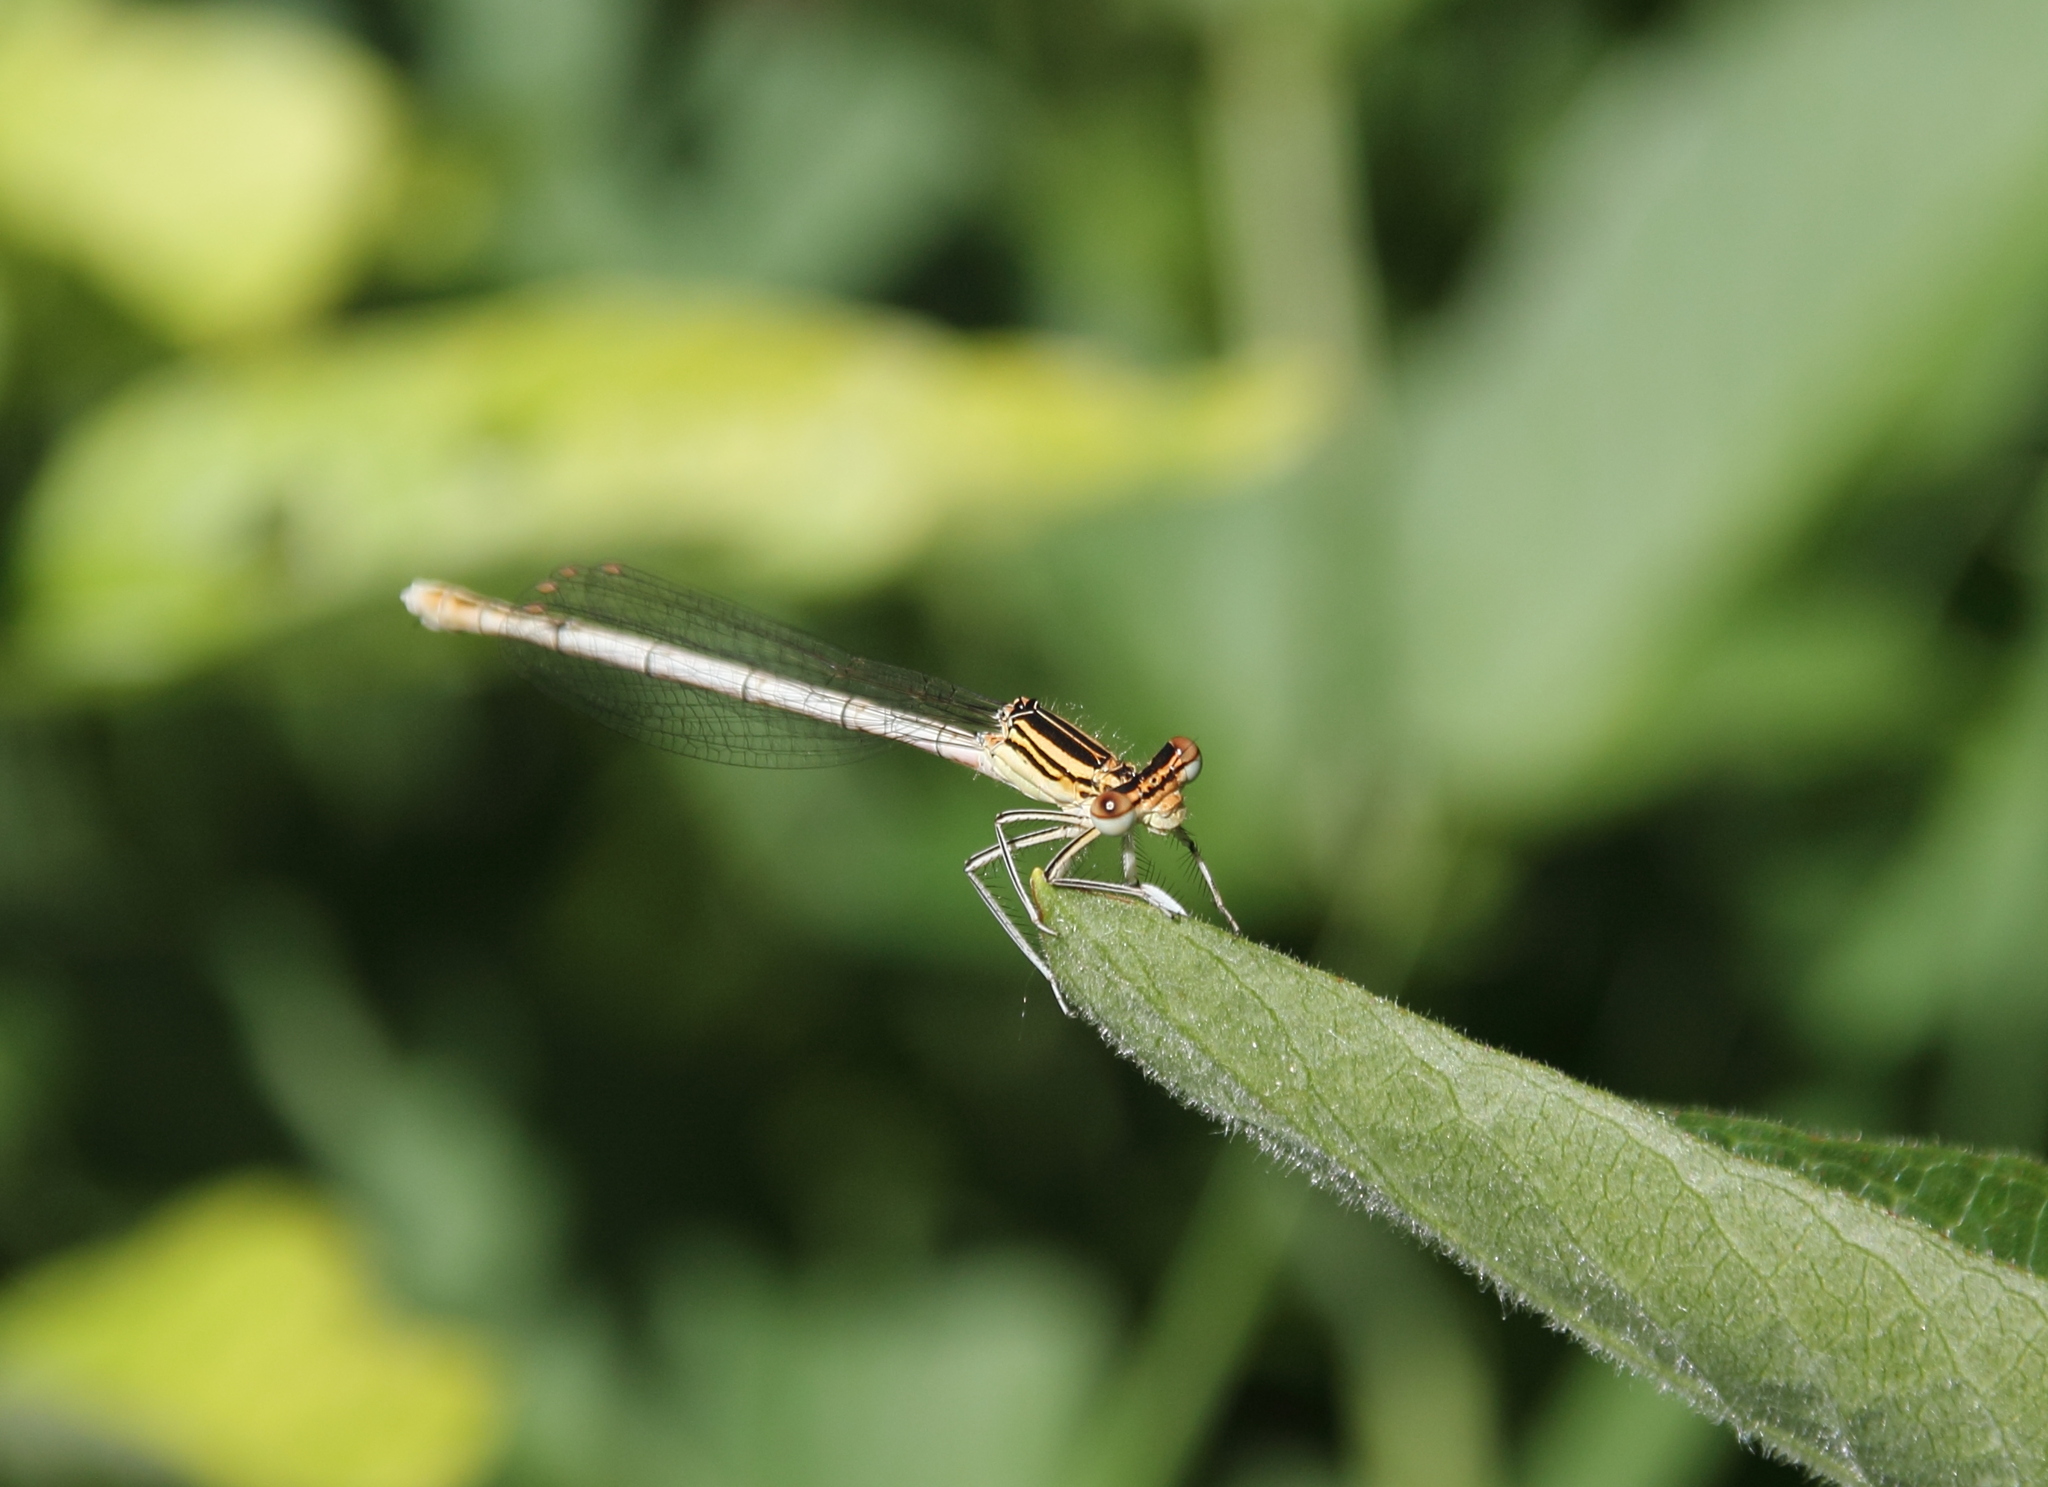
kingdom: Animalia
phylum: Arthropoda
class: Insecta
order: Odonata
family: Platycnemididae
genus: Platycnemis
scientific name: Platycnemis pennipes
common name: White-legged damselfly
